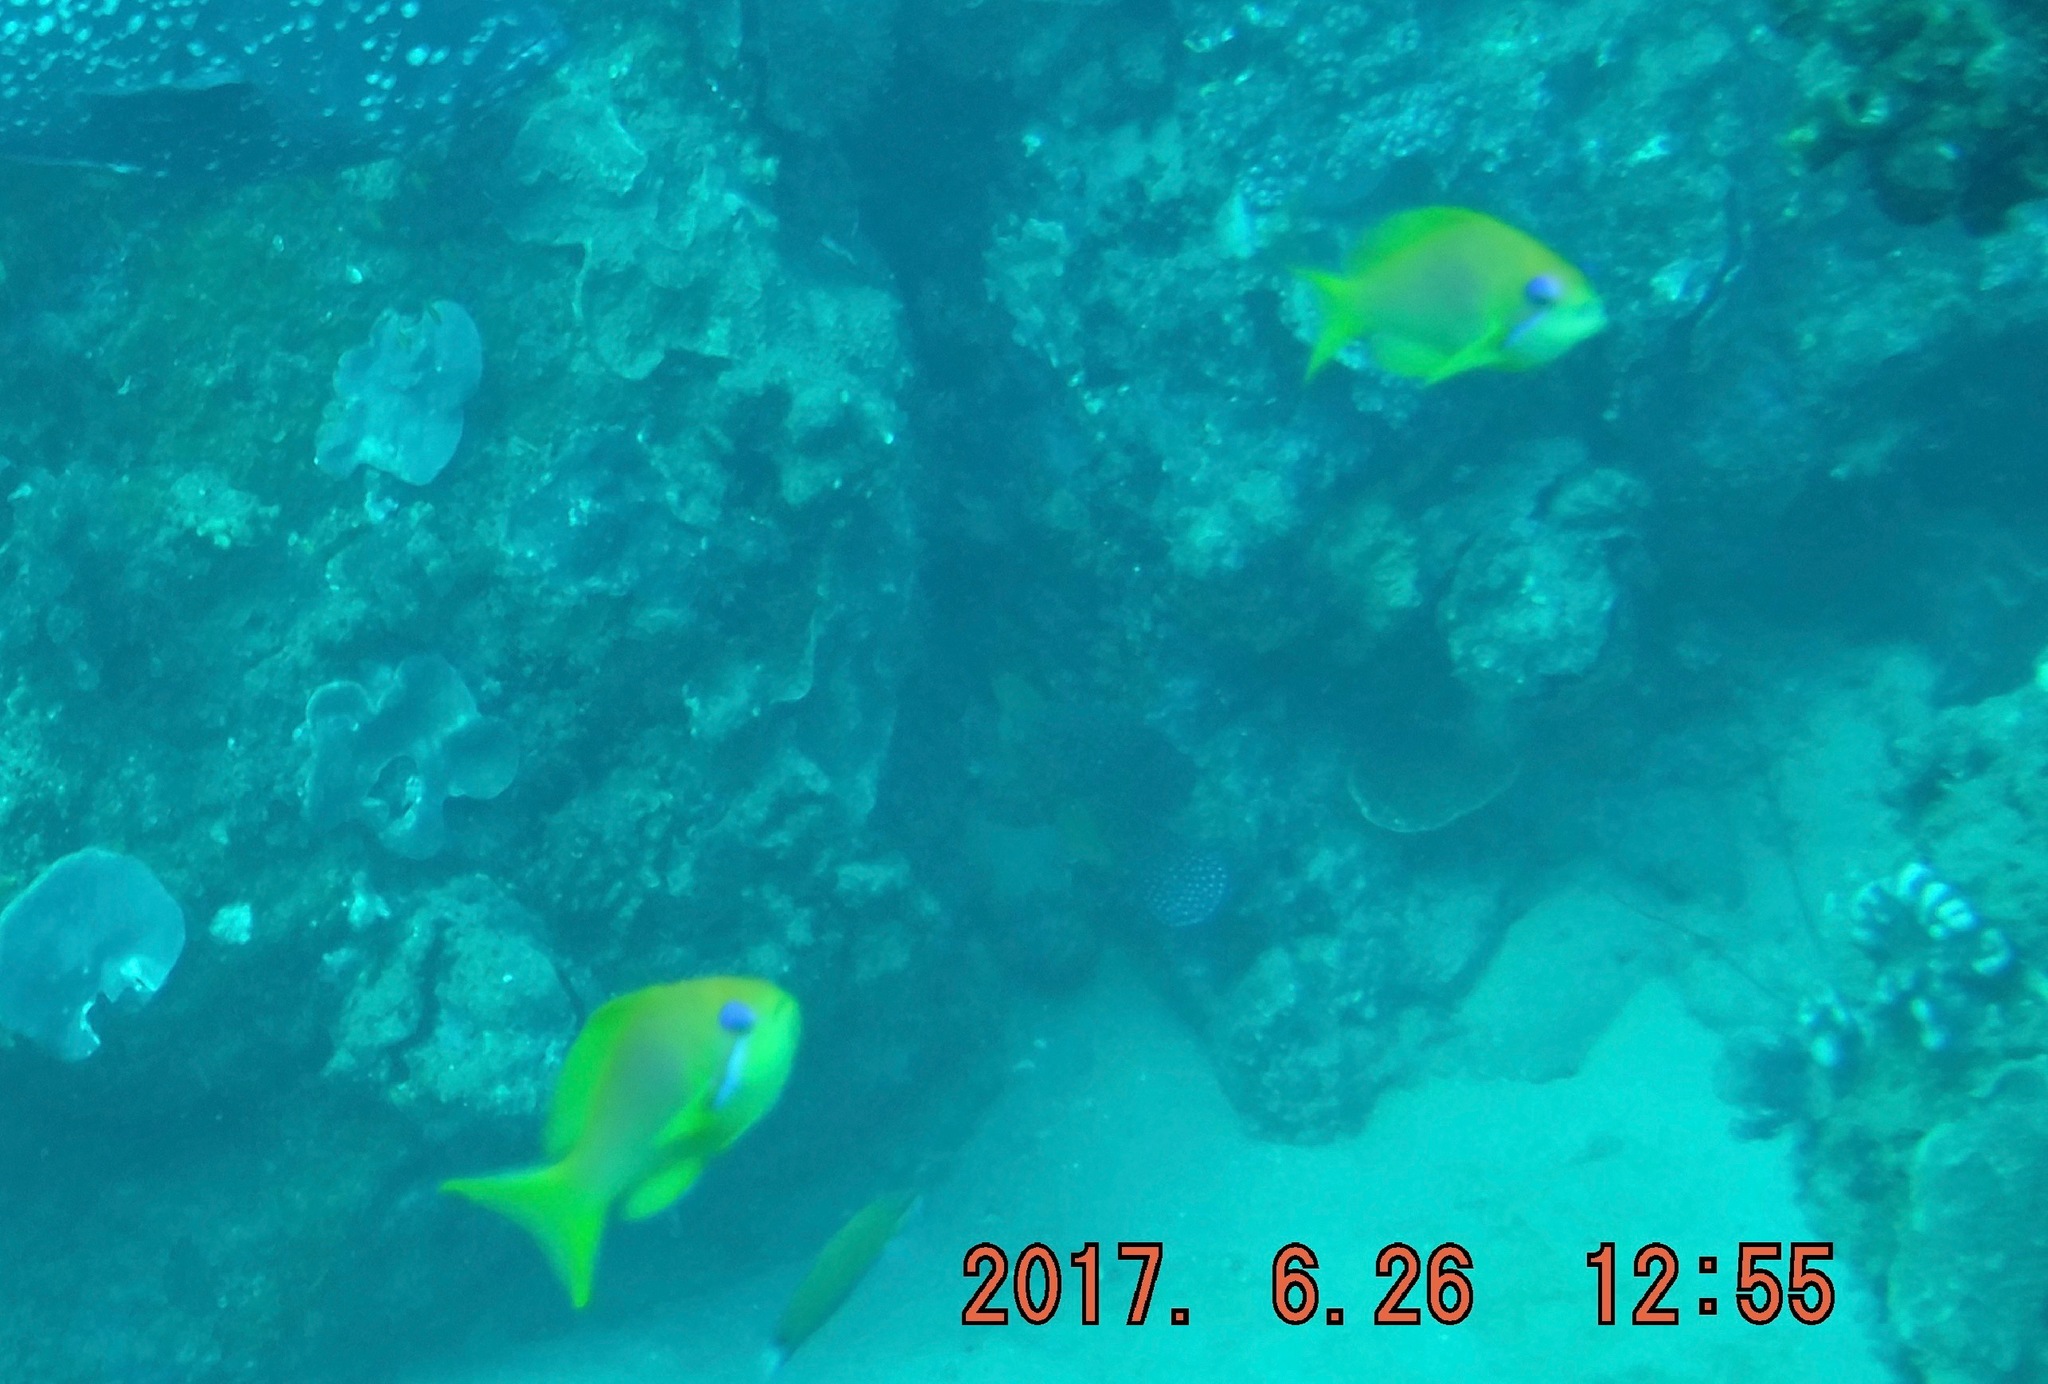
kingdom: Animalia
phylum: Chordata
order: Perciformes
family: Serranidae
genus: Pseudanthias
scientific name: Pseudanthias squamipinnis
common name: Scalefin anthias
